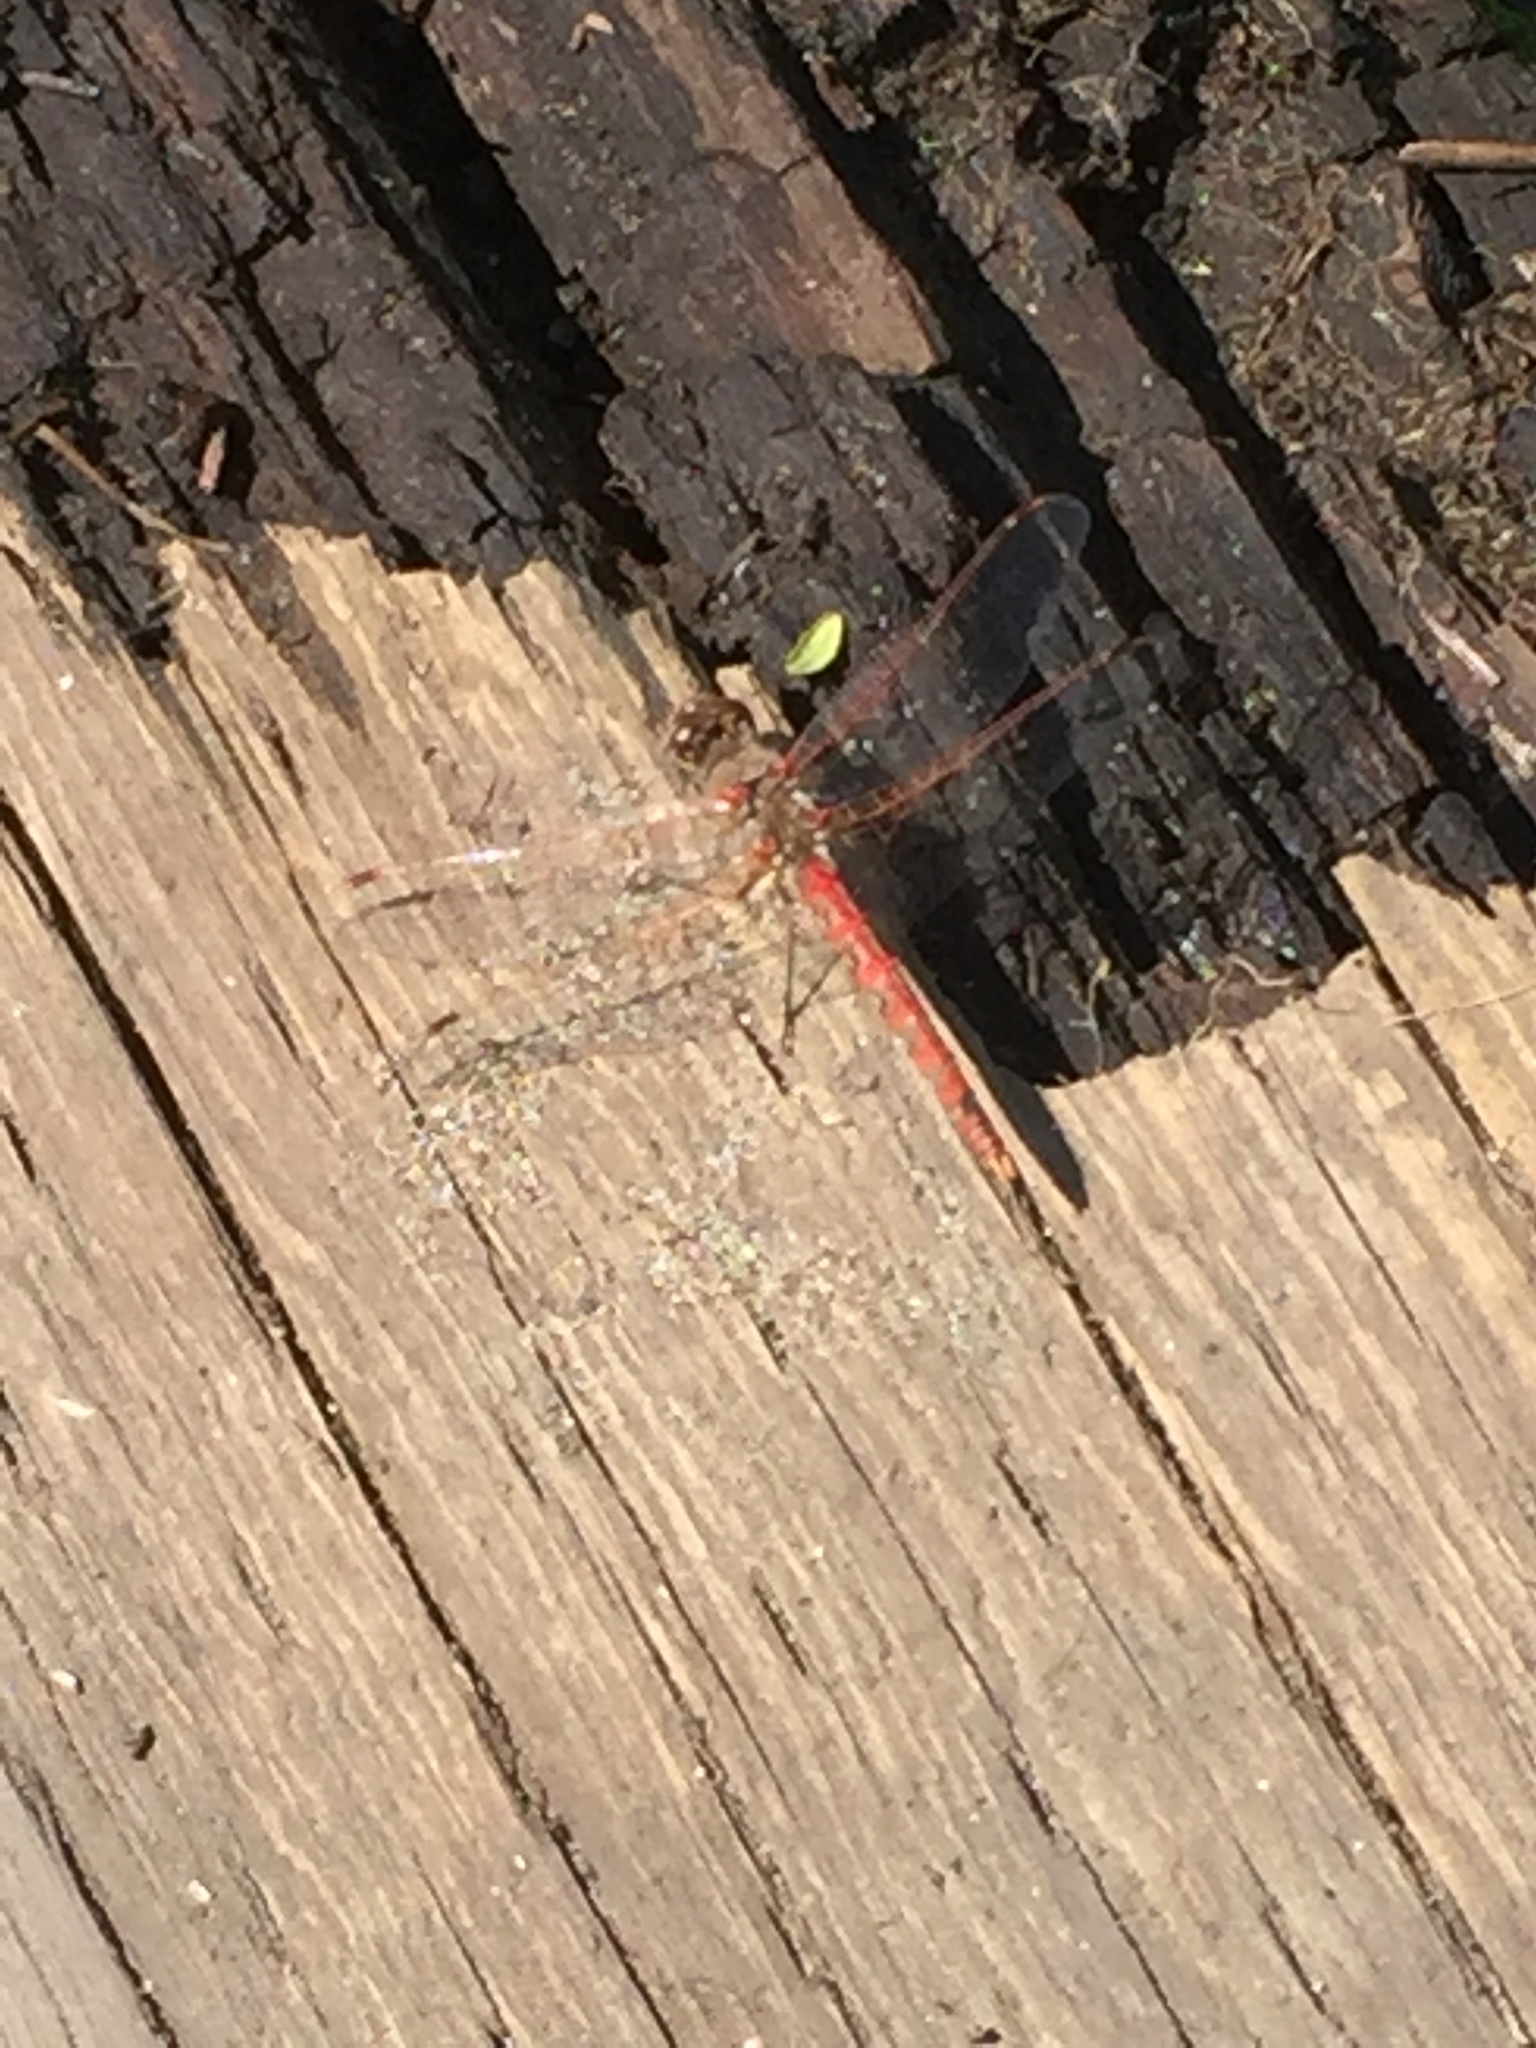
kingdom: Animalia
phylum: Arthropoda
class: Insecta
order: Odonata
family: Libellulidae
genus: Sympetrum
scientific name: Sympetrum corruptum
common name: Variegated meadowhawk
